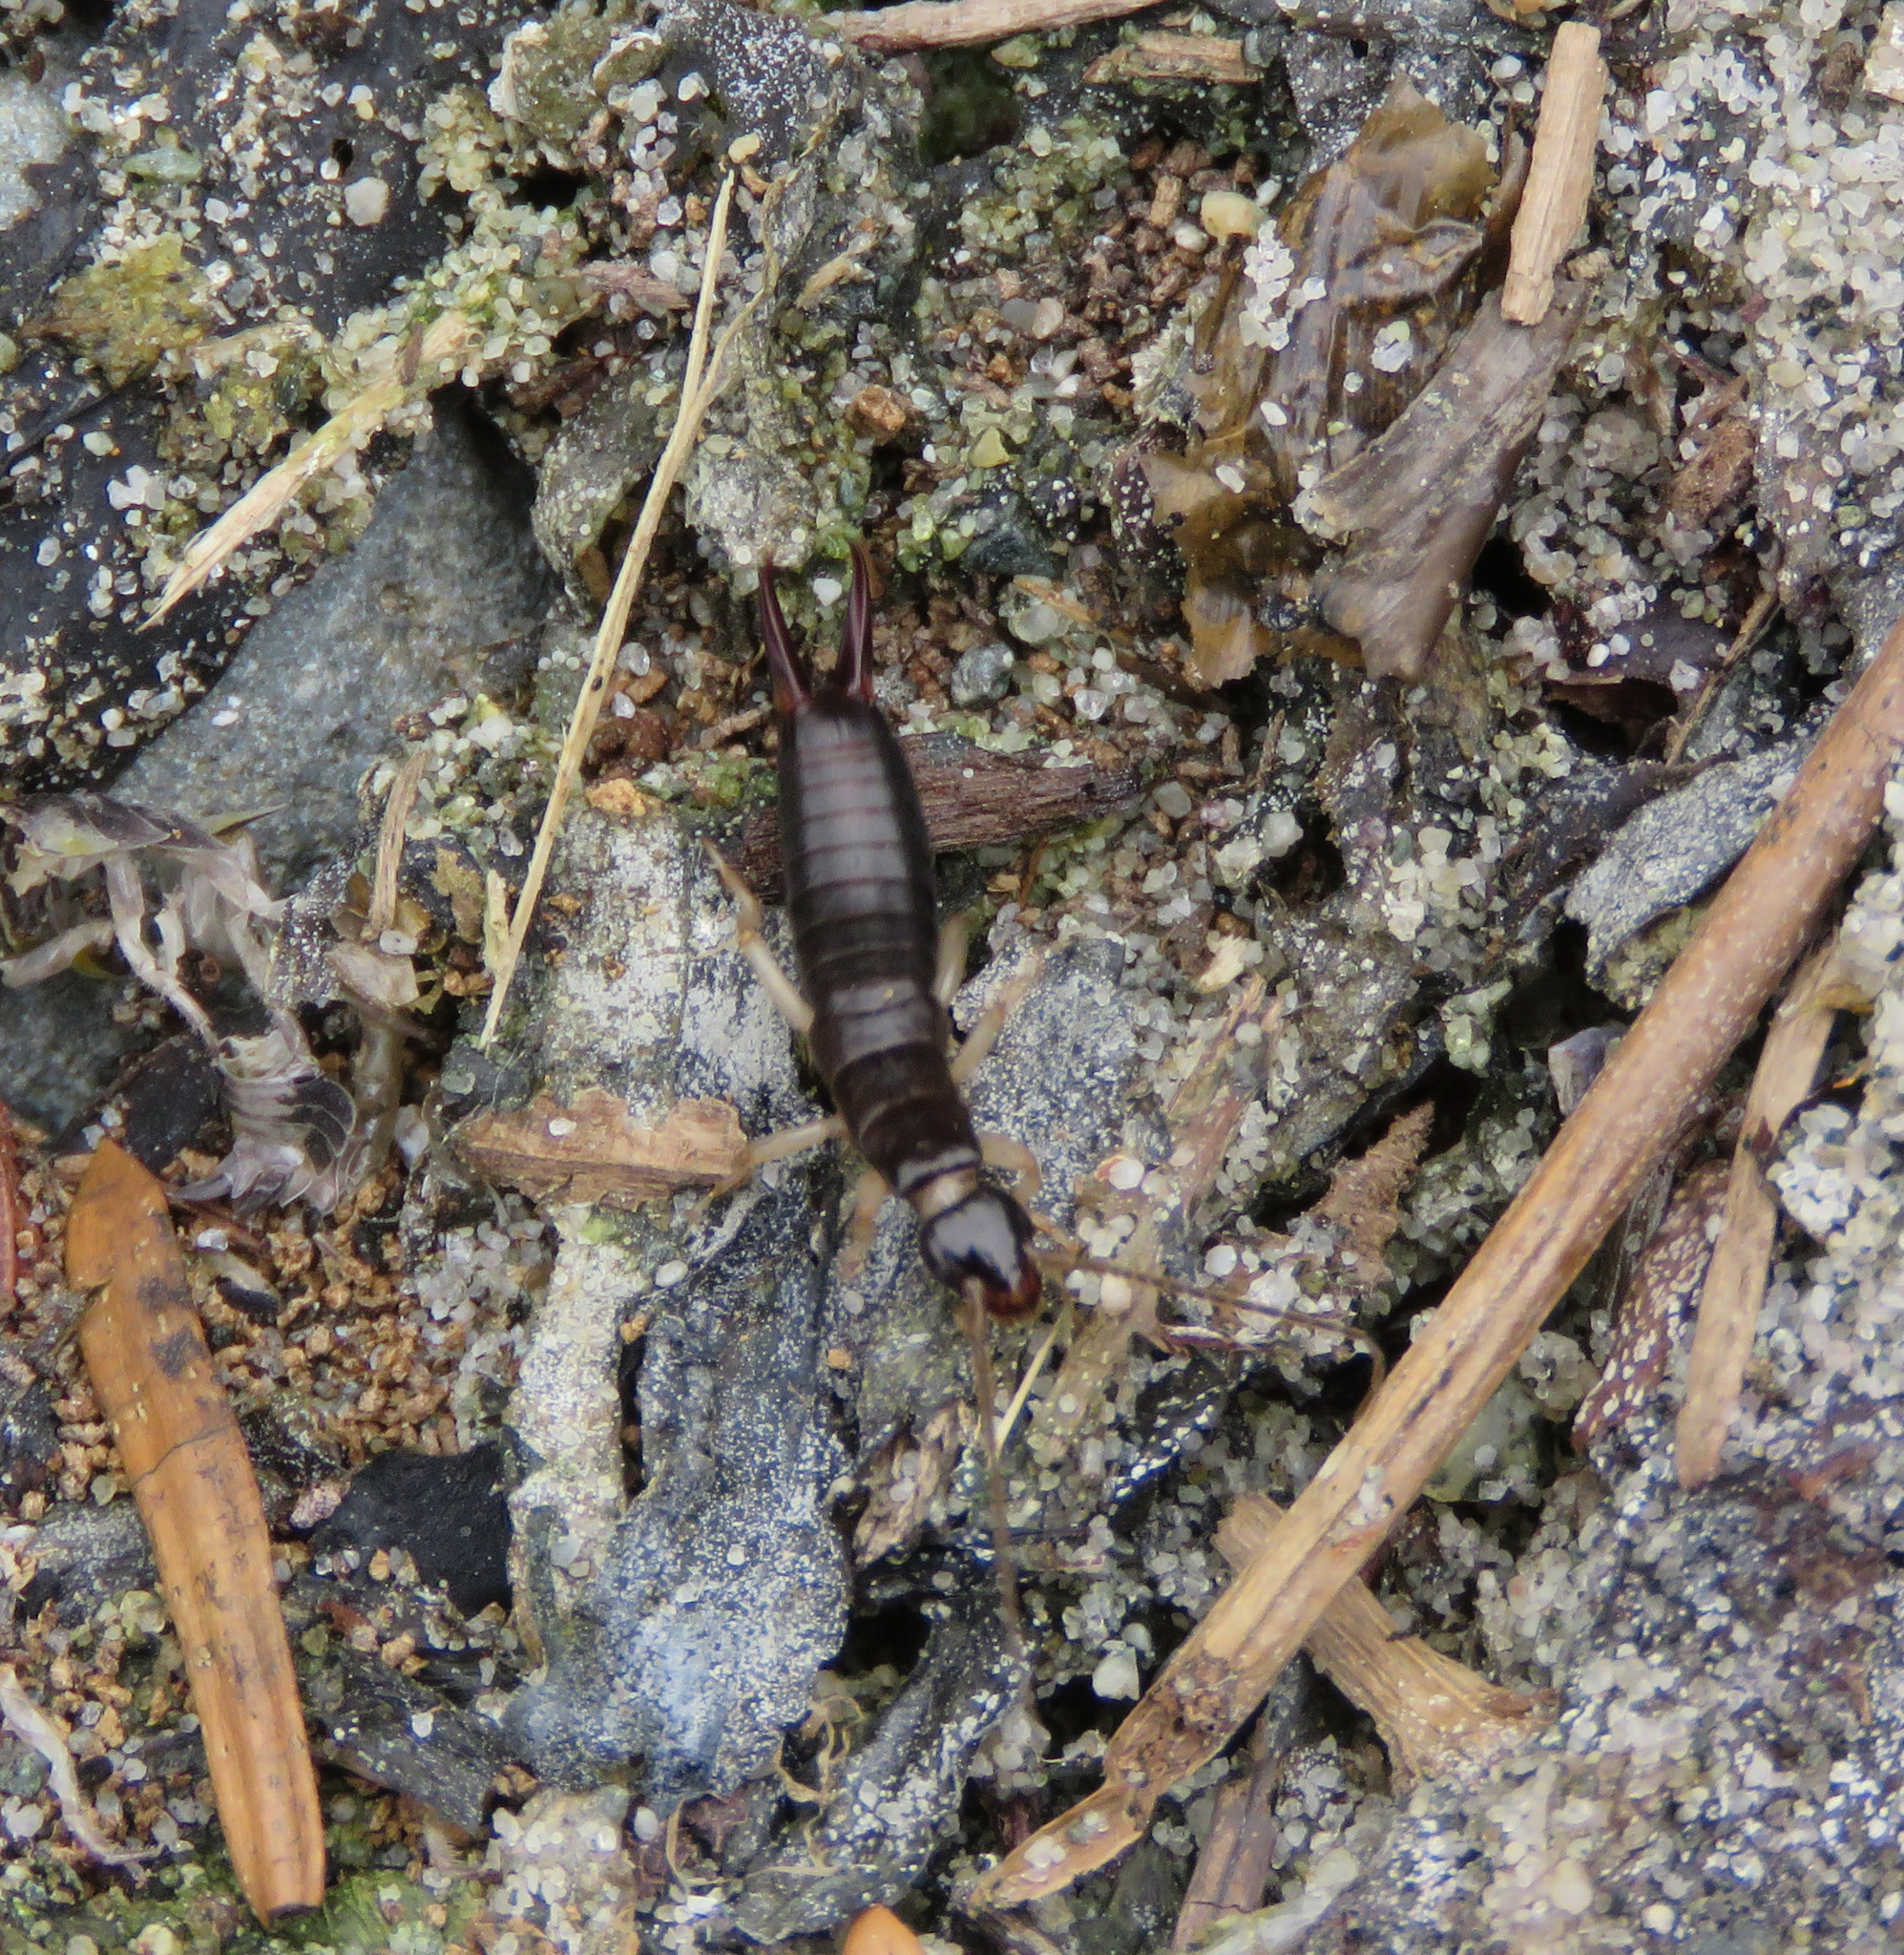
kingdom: Animalia
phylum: Arthropoda
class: Insecta
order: Dermaptera
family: Anisolabididae
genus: Anisolabis
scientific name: Anisolabis maritima
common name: Maritime earwig
